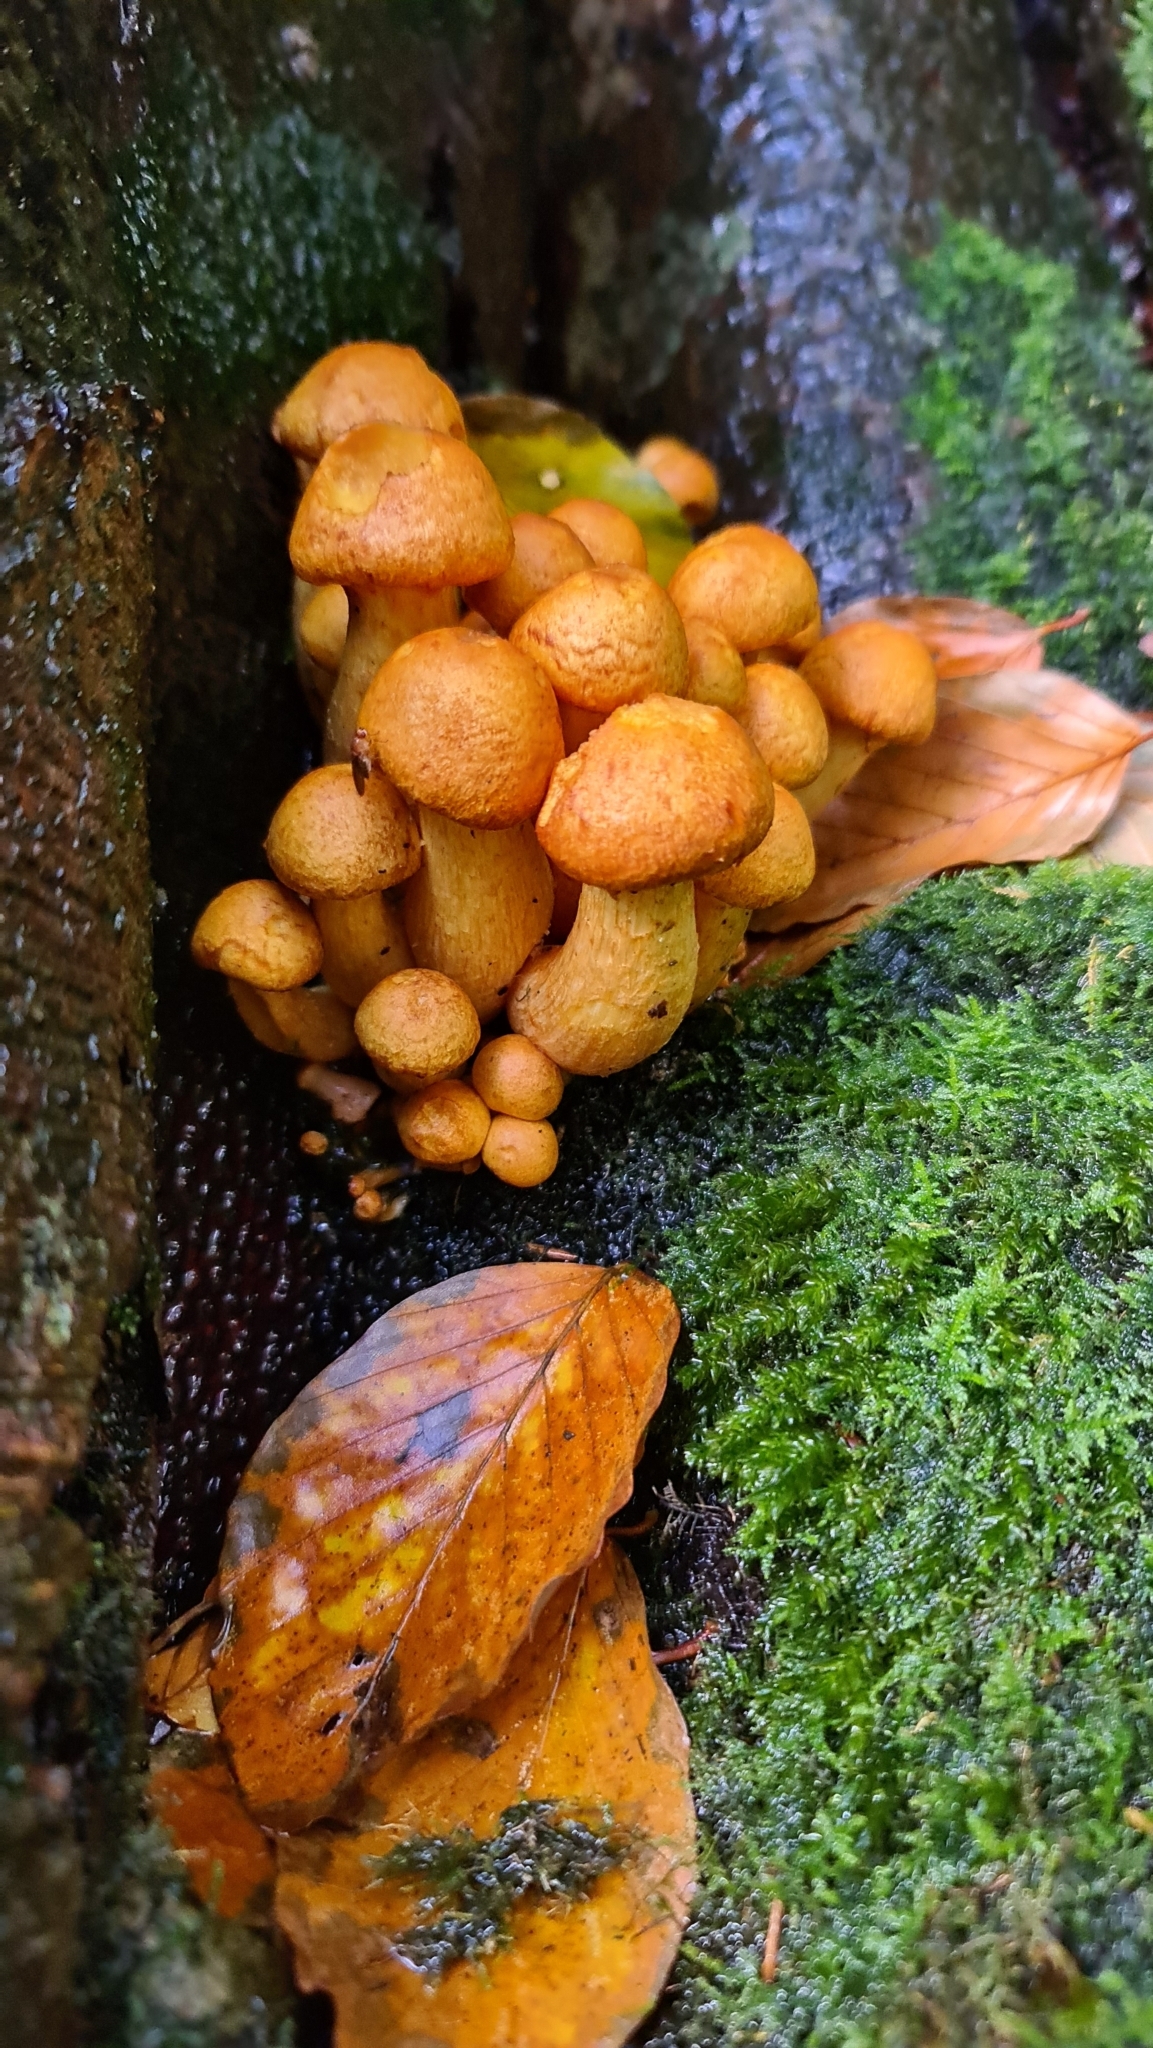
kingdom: Fungi
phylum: Basidiomycota
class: Agaricomycetes
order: Agaricales
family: Hymenogastraceae
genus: Gymnopilus
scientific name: Gymnopilus junonius
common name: Spectacular rustgill
